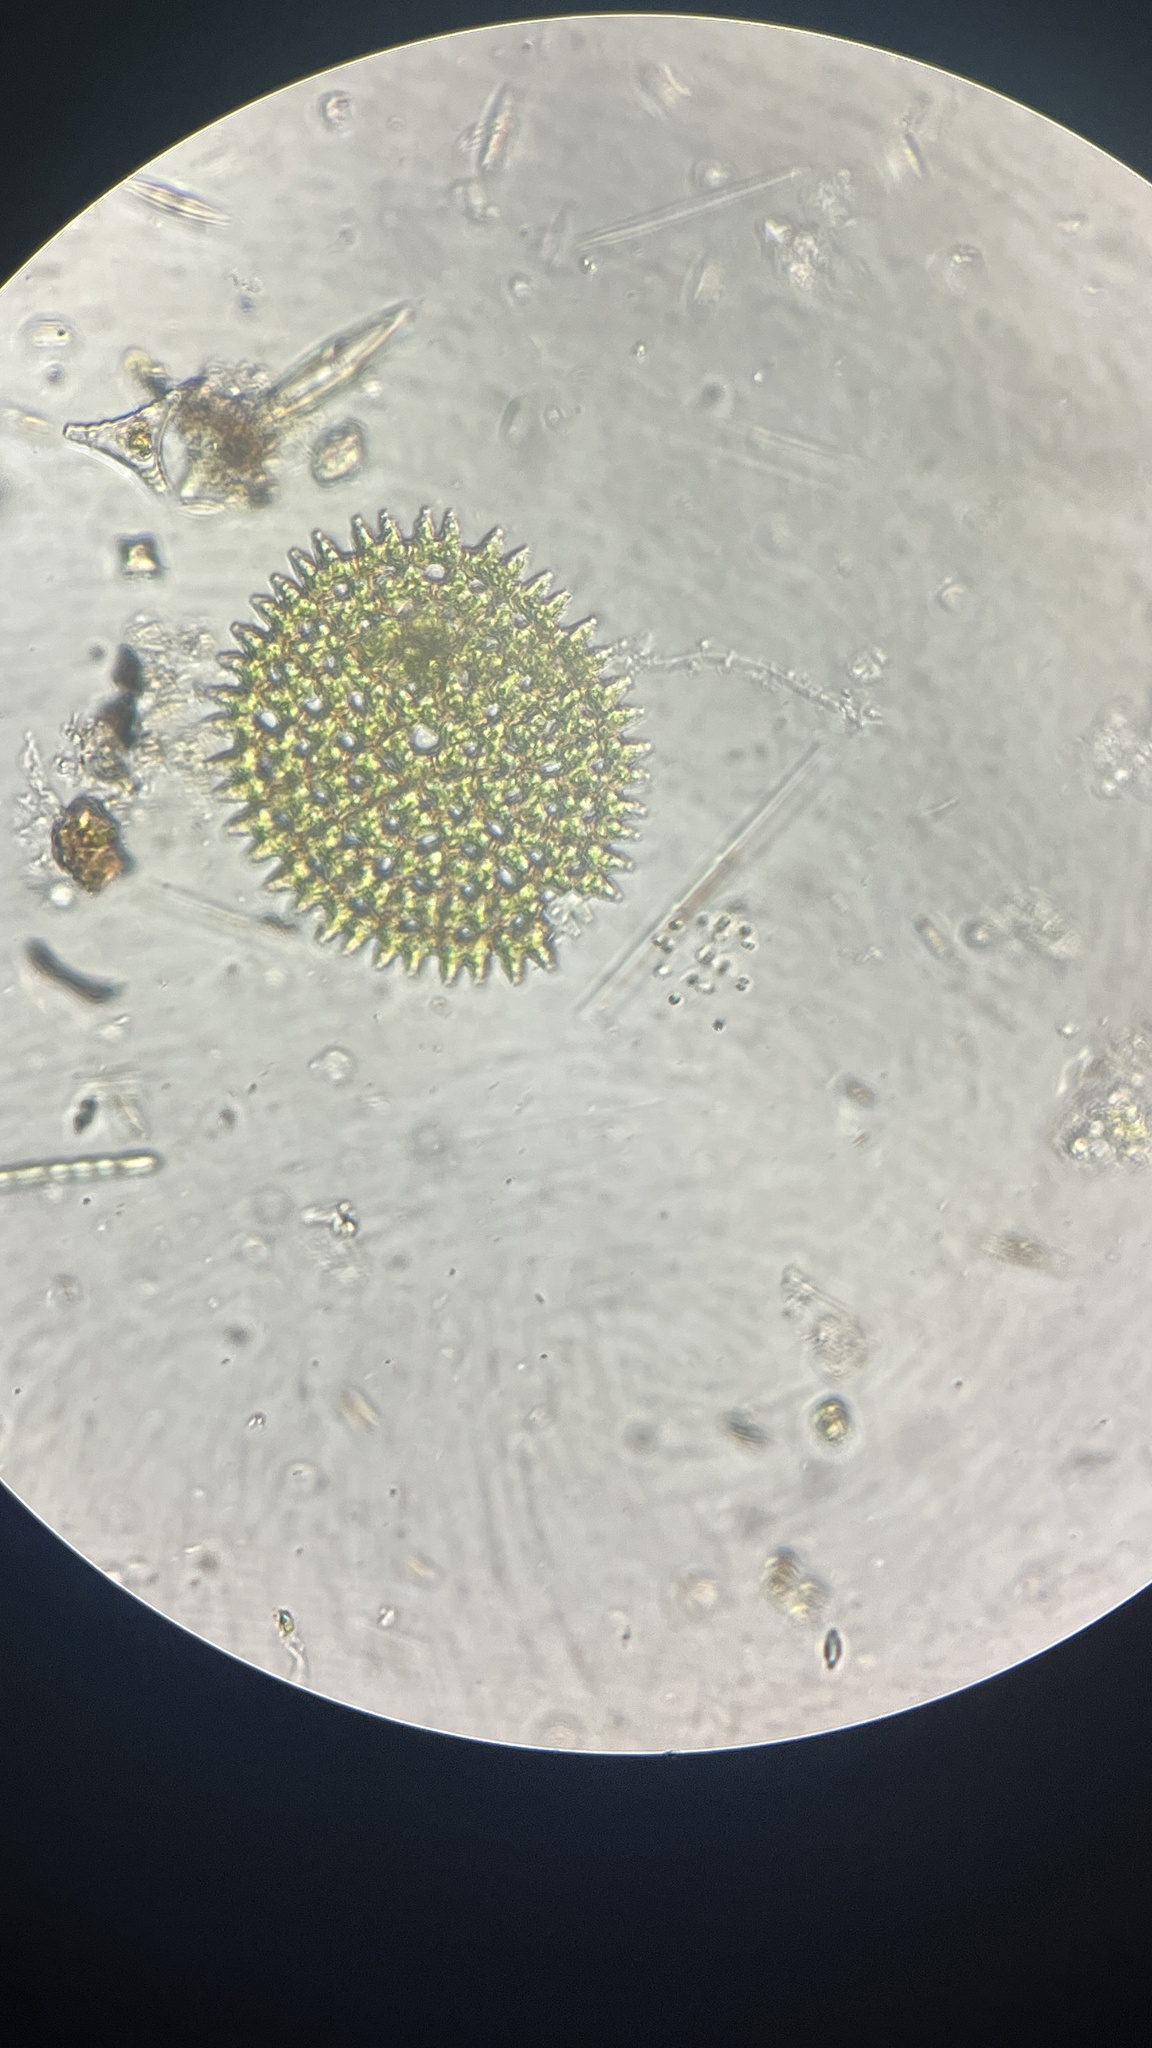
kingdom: Plantae
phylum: Chlorophyta
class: Chlorophyceae
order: Sphaeropleales
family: Hydrodictyaceae
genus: Pediastrum
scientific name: Pediastrum duplex
